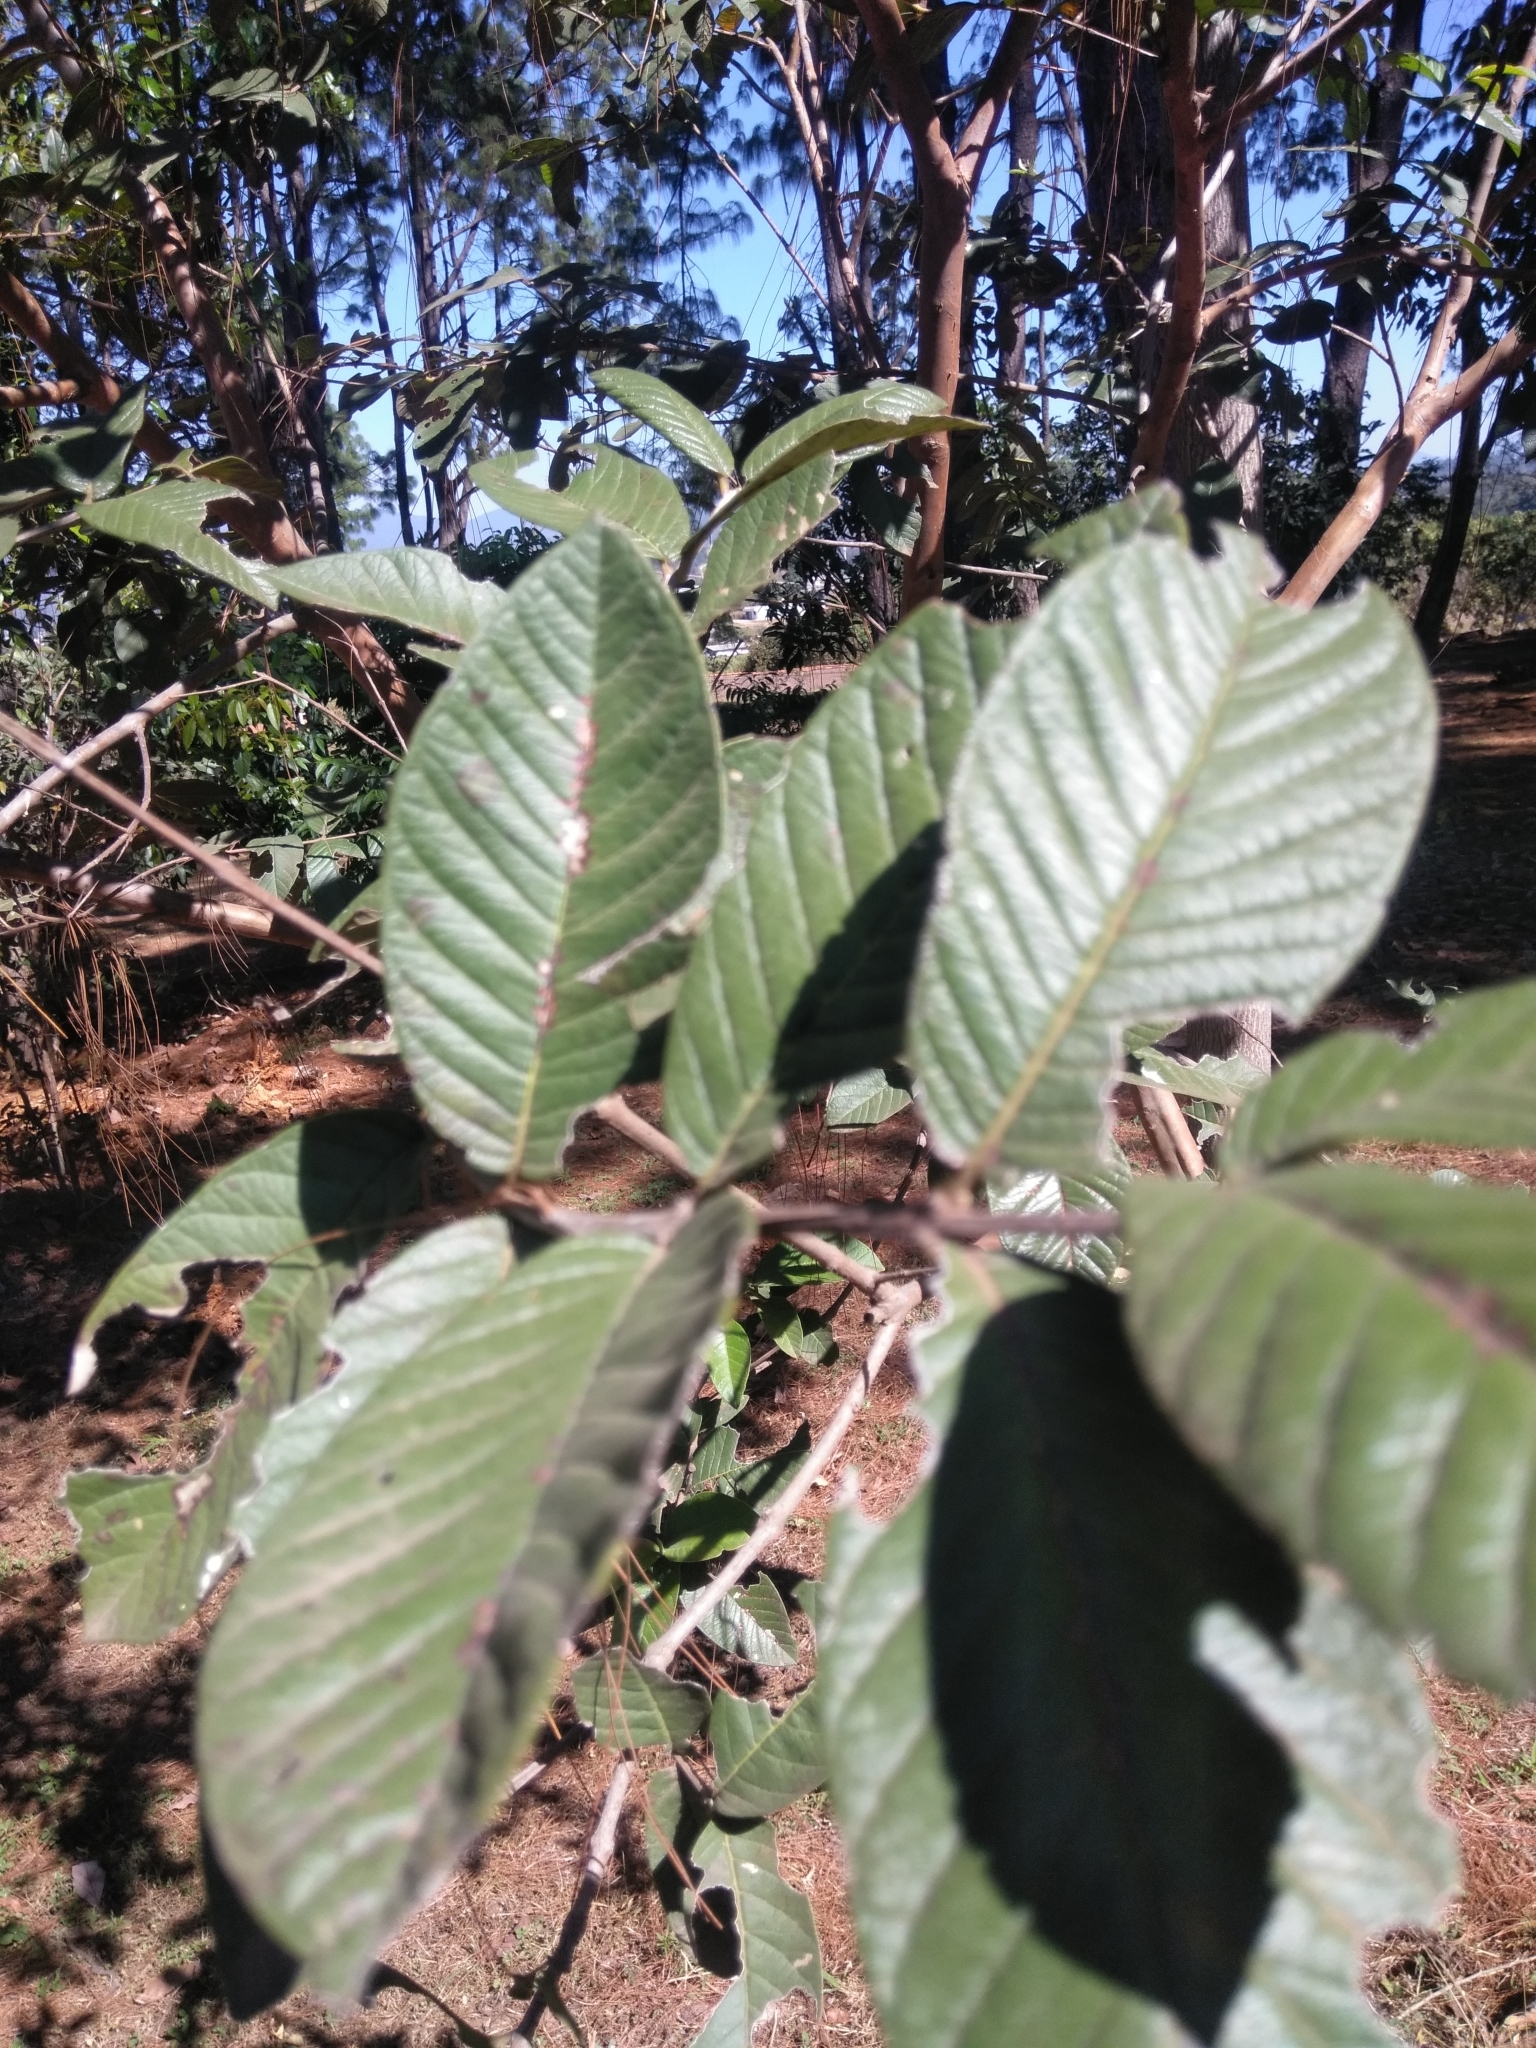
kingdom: Plantae
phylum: Tracheophyta
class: Magnoliopsida
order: Myrtales
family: Myrtaceae
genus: Psidium
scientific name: Psidium guajava
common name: Guava
